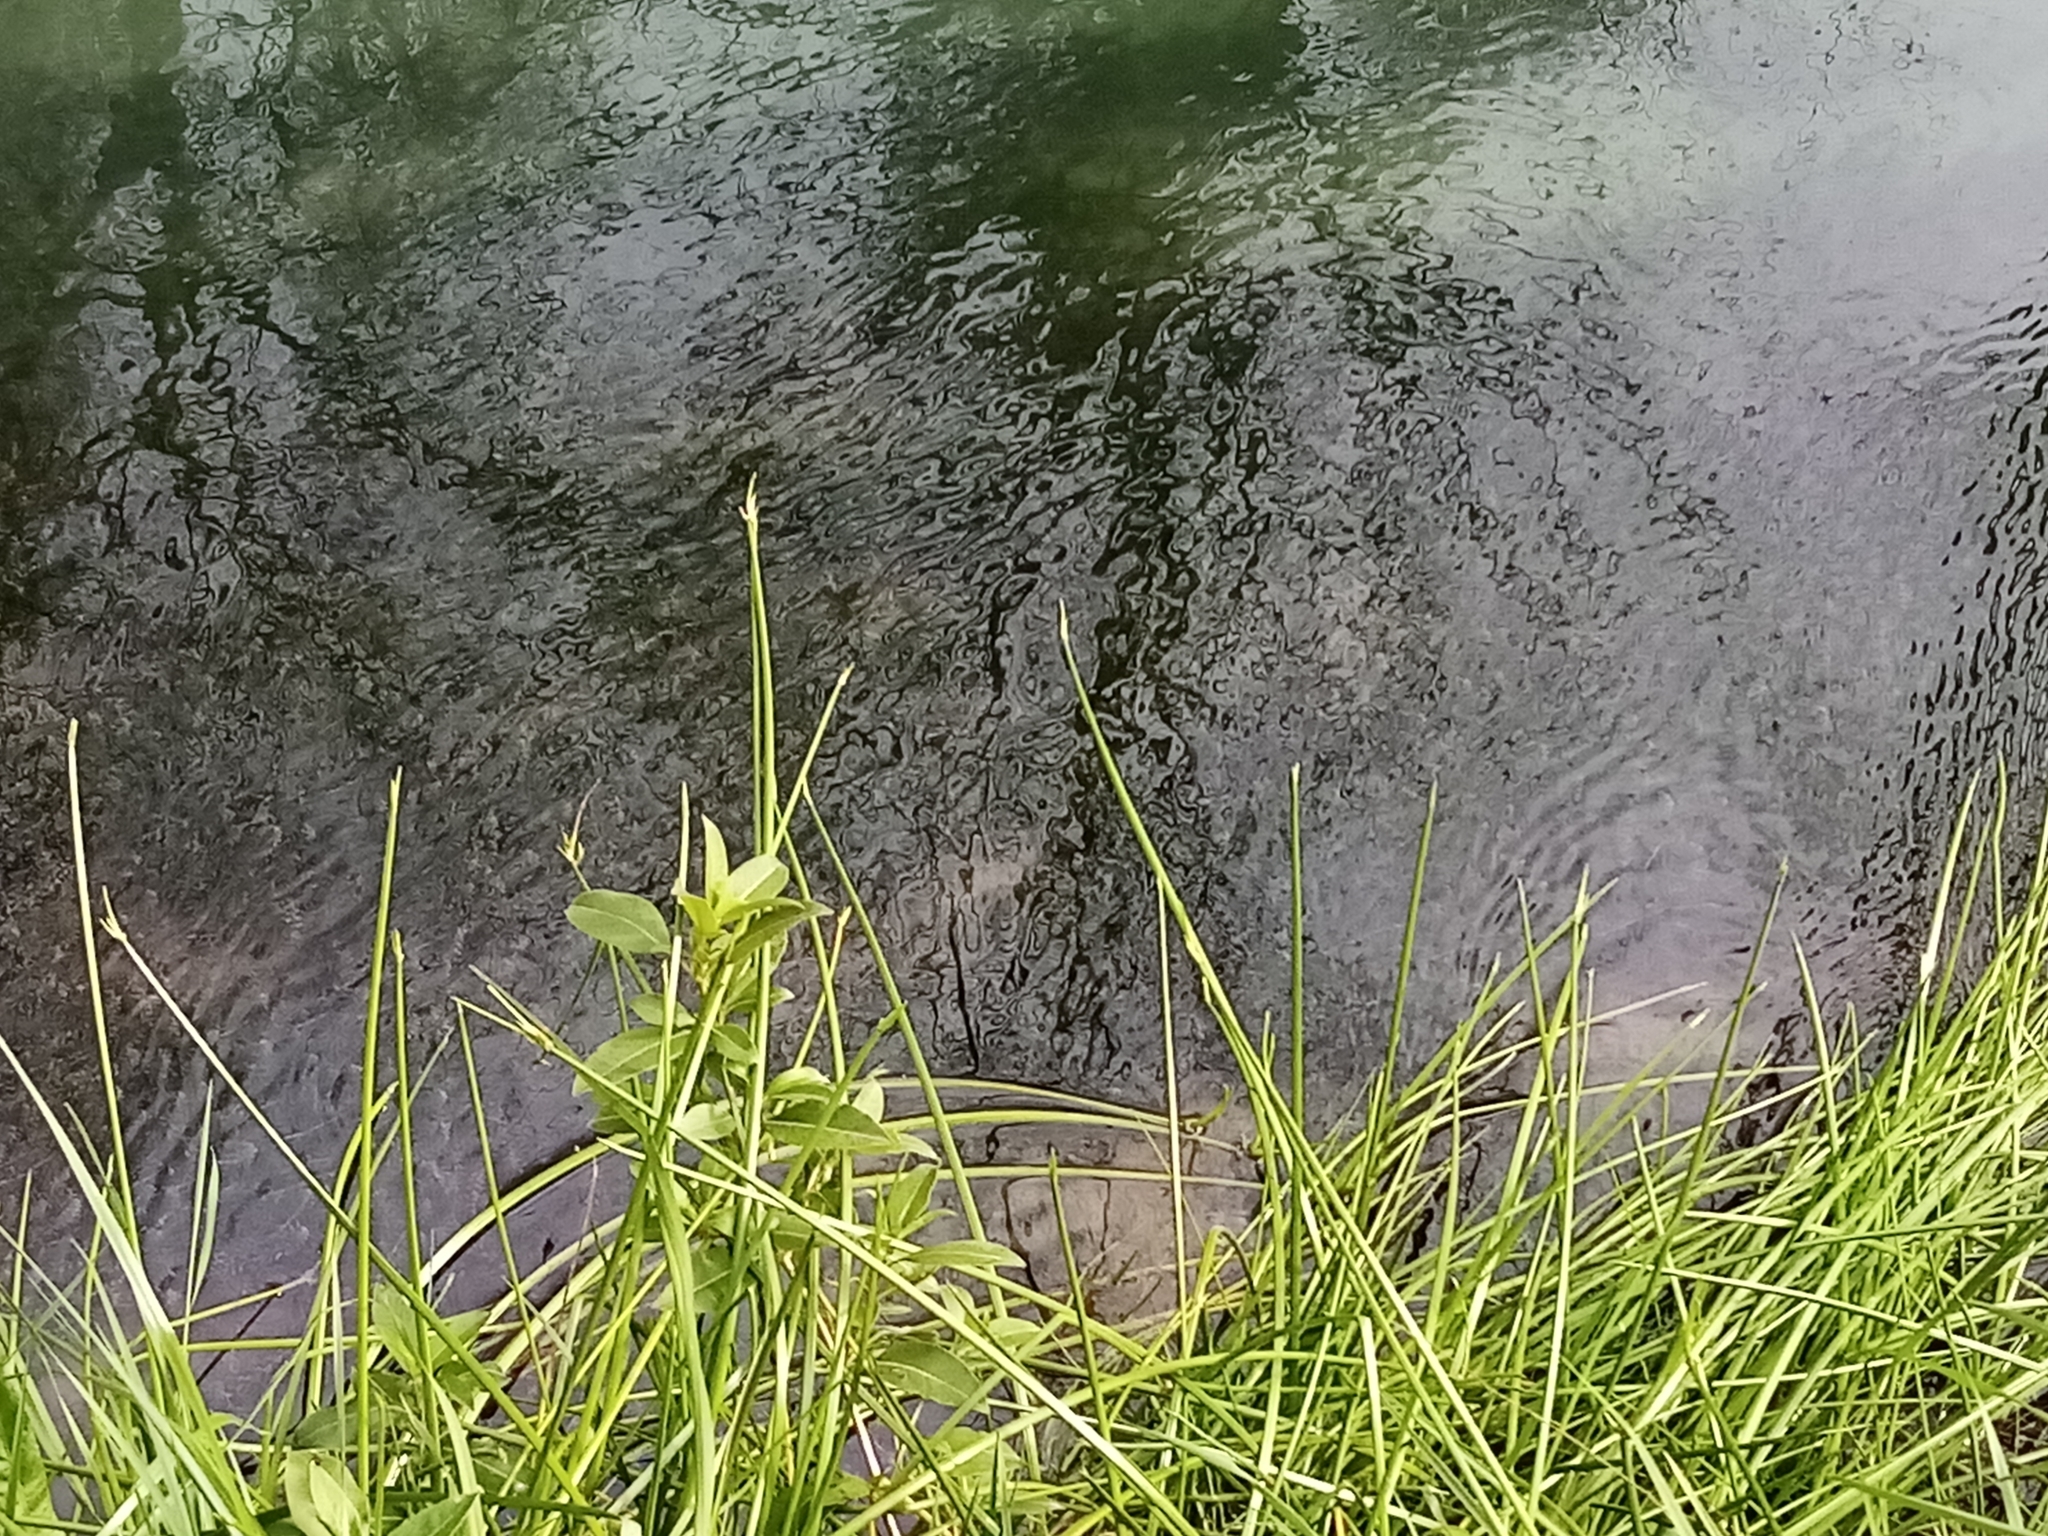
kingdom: Plantae
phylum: Tracheophyta
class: Liliopsida
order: Poales
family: Cyperaceae
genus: Isolepis
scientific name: Isolepis prolifera
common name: Proliferating bulrush
